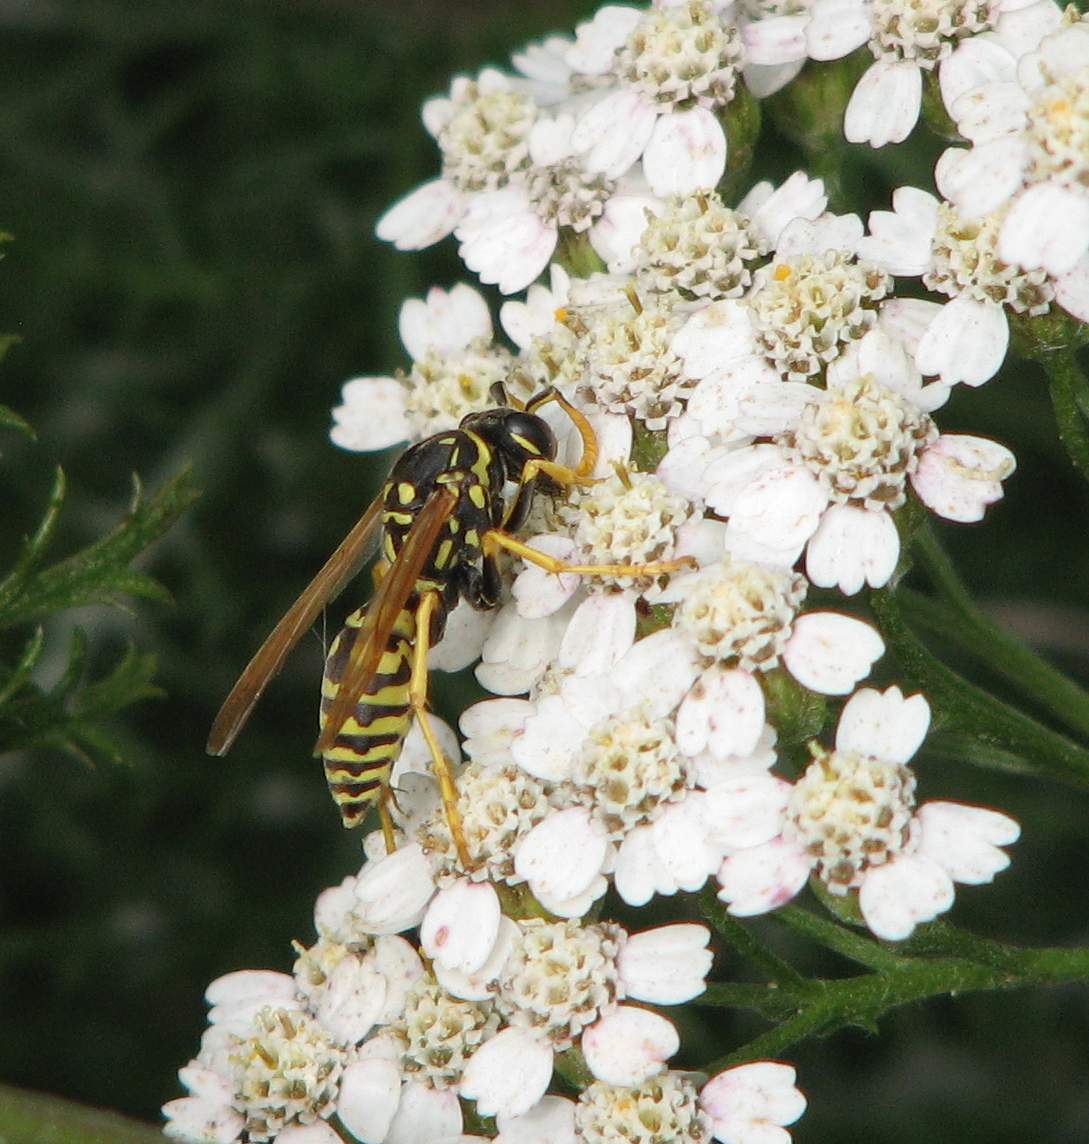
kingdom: Animalia
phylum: Arthropoda
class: Insecta
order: Hymenoptera
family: Eumenidae
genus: Polistes
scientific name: Polistes dominula
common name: Paper wasp
